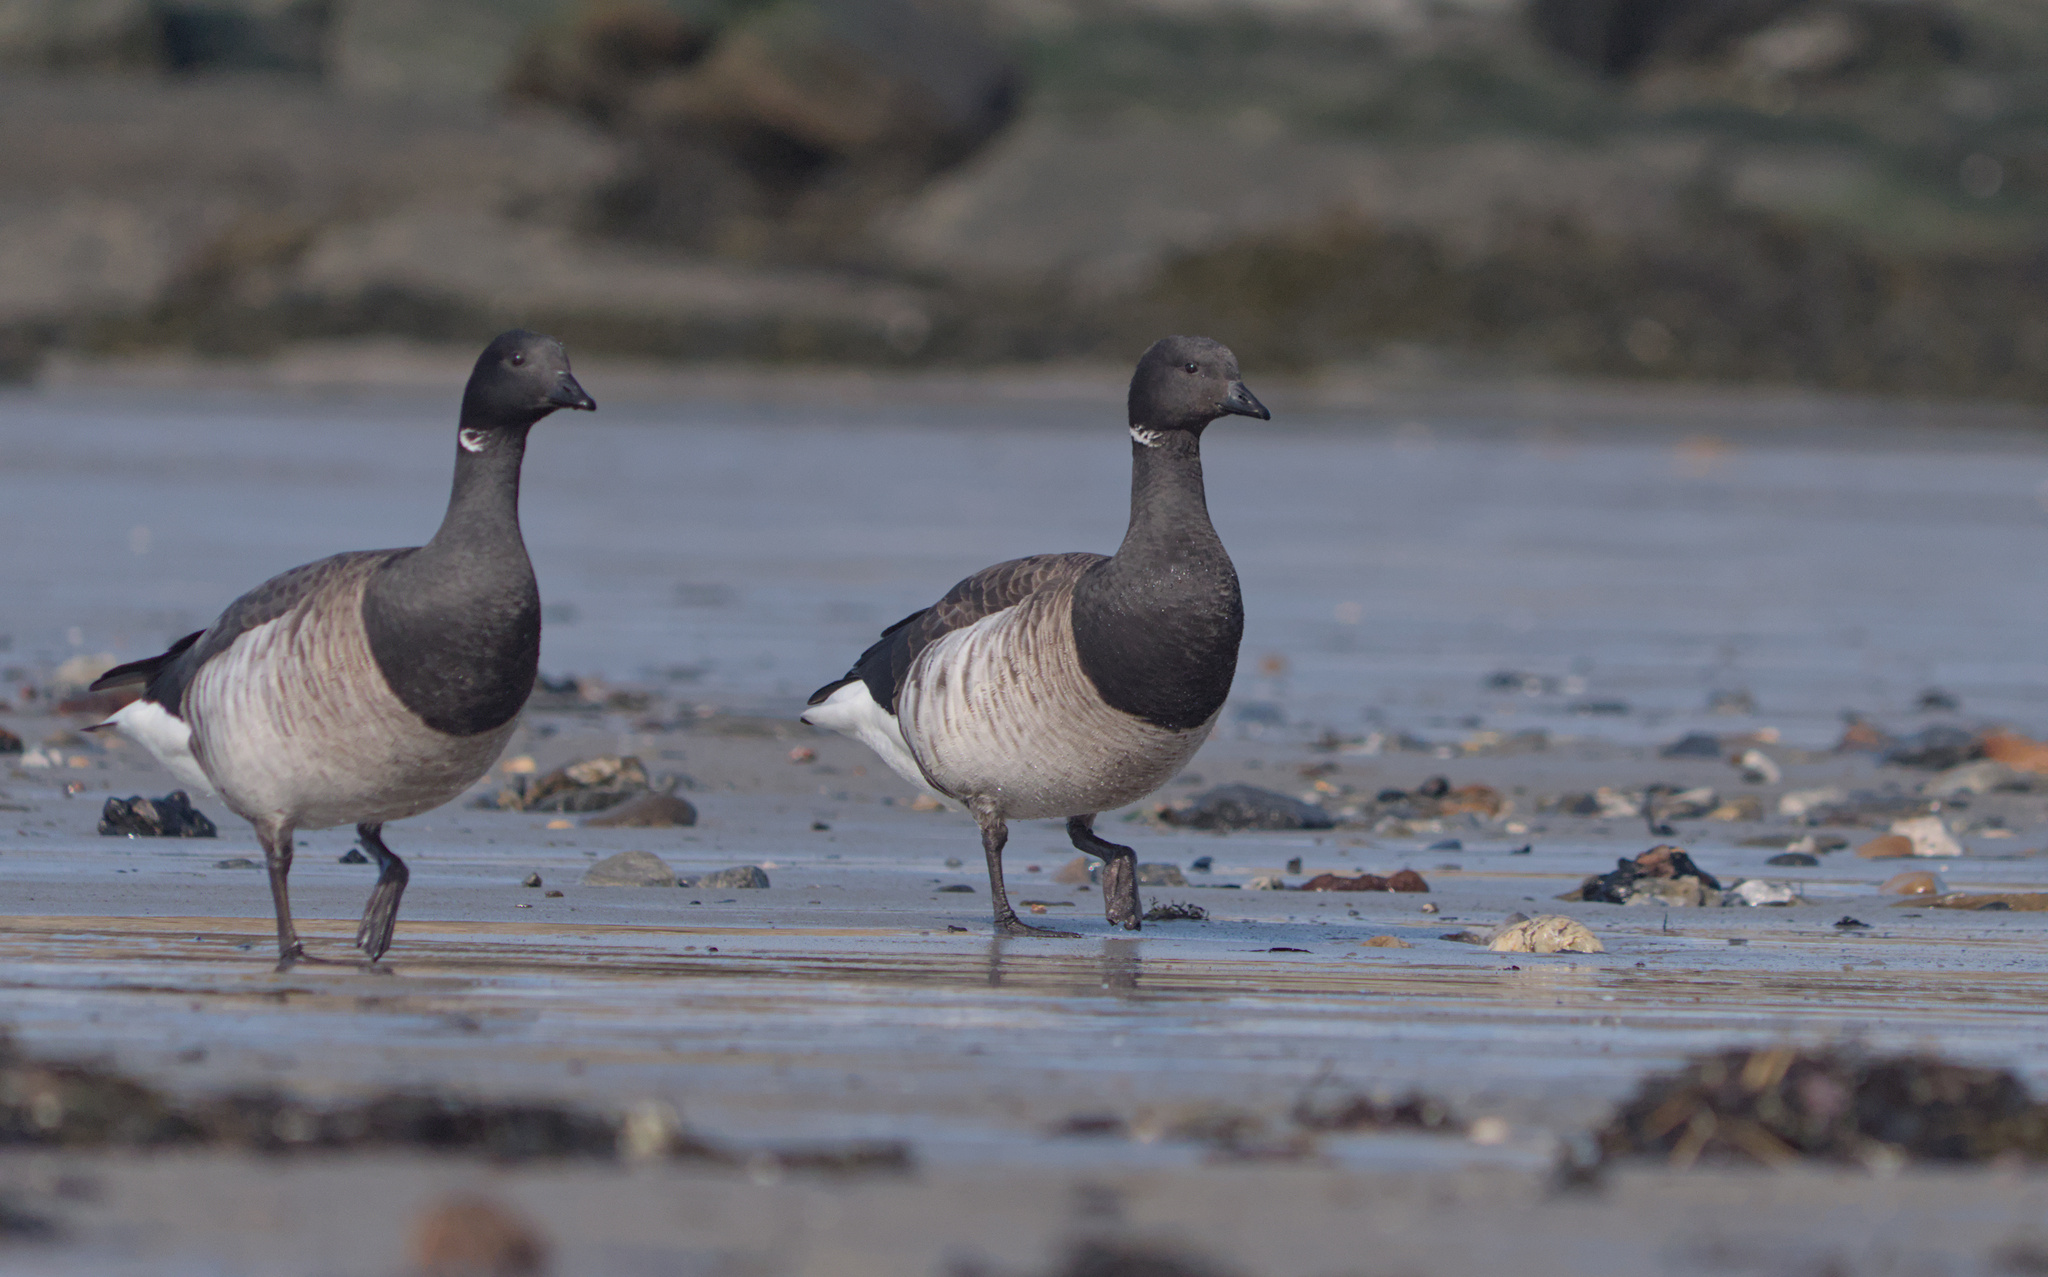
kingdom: Animalia
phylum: Chordata
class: Aves
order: Anseriformes
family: Anatidae
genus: Branta
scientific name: Branta bernicla
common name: Brant goose
